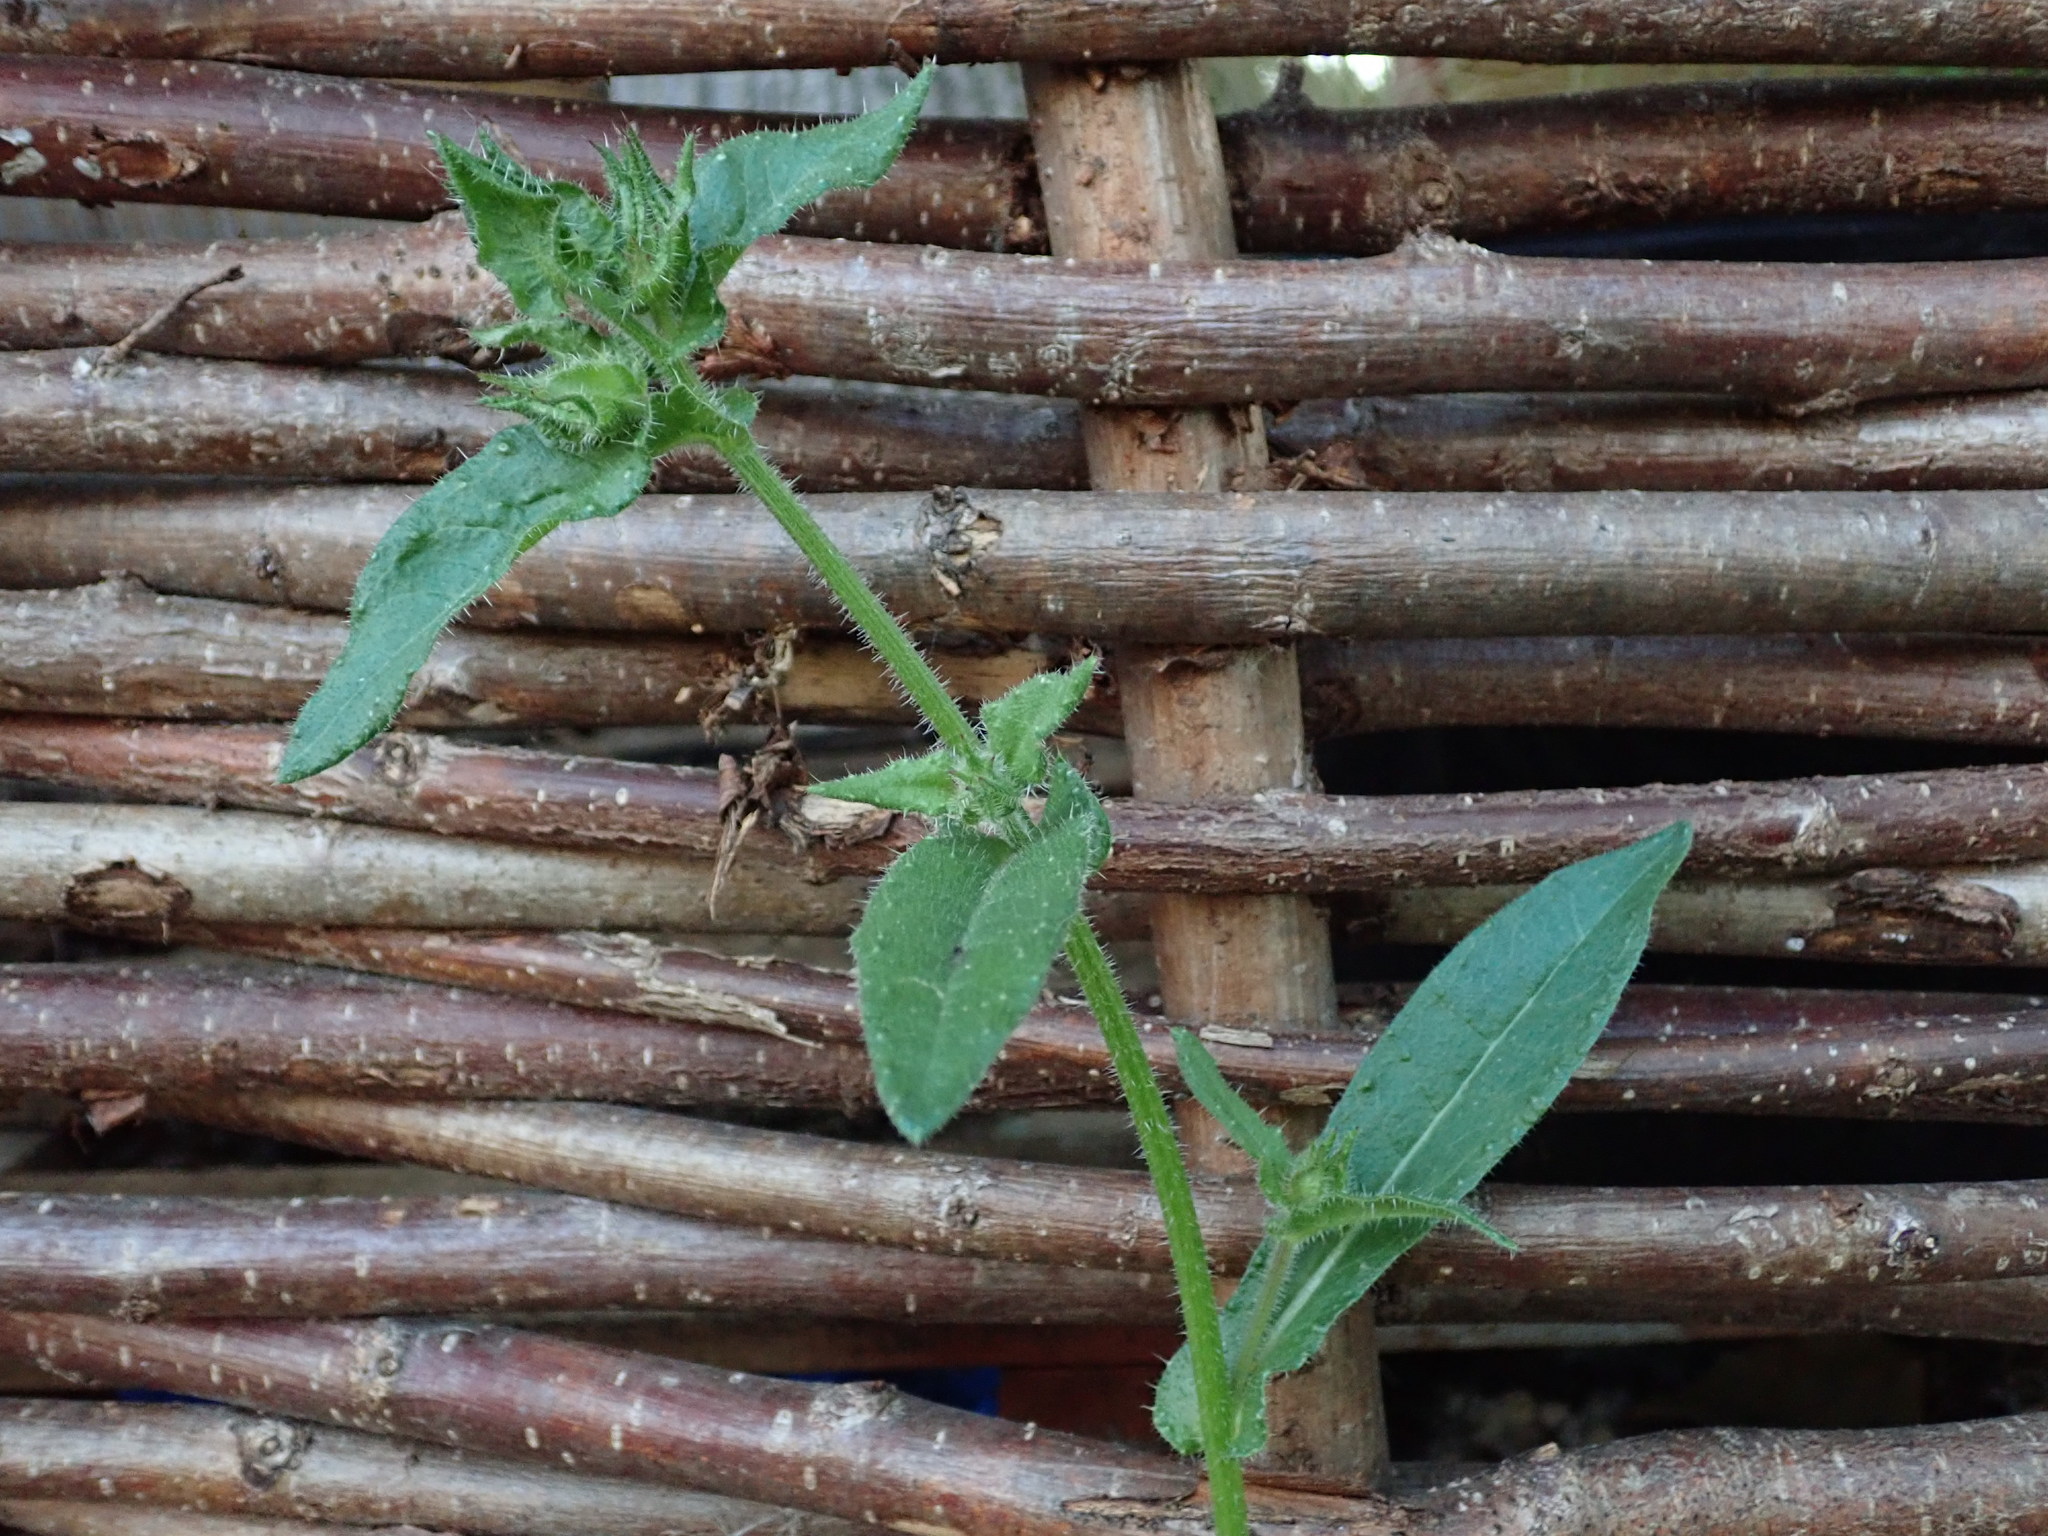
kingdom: Plantae
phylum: Tracheophyta
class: Magnoliopsida
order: Asterales
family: Asteraceae
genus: Helminthotheca
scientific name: Helminthotheca echioides
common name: Ox-tongue
